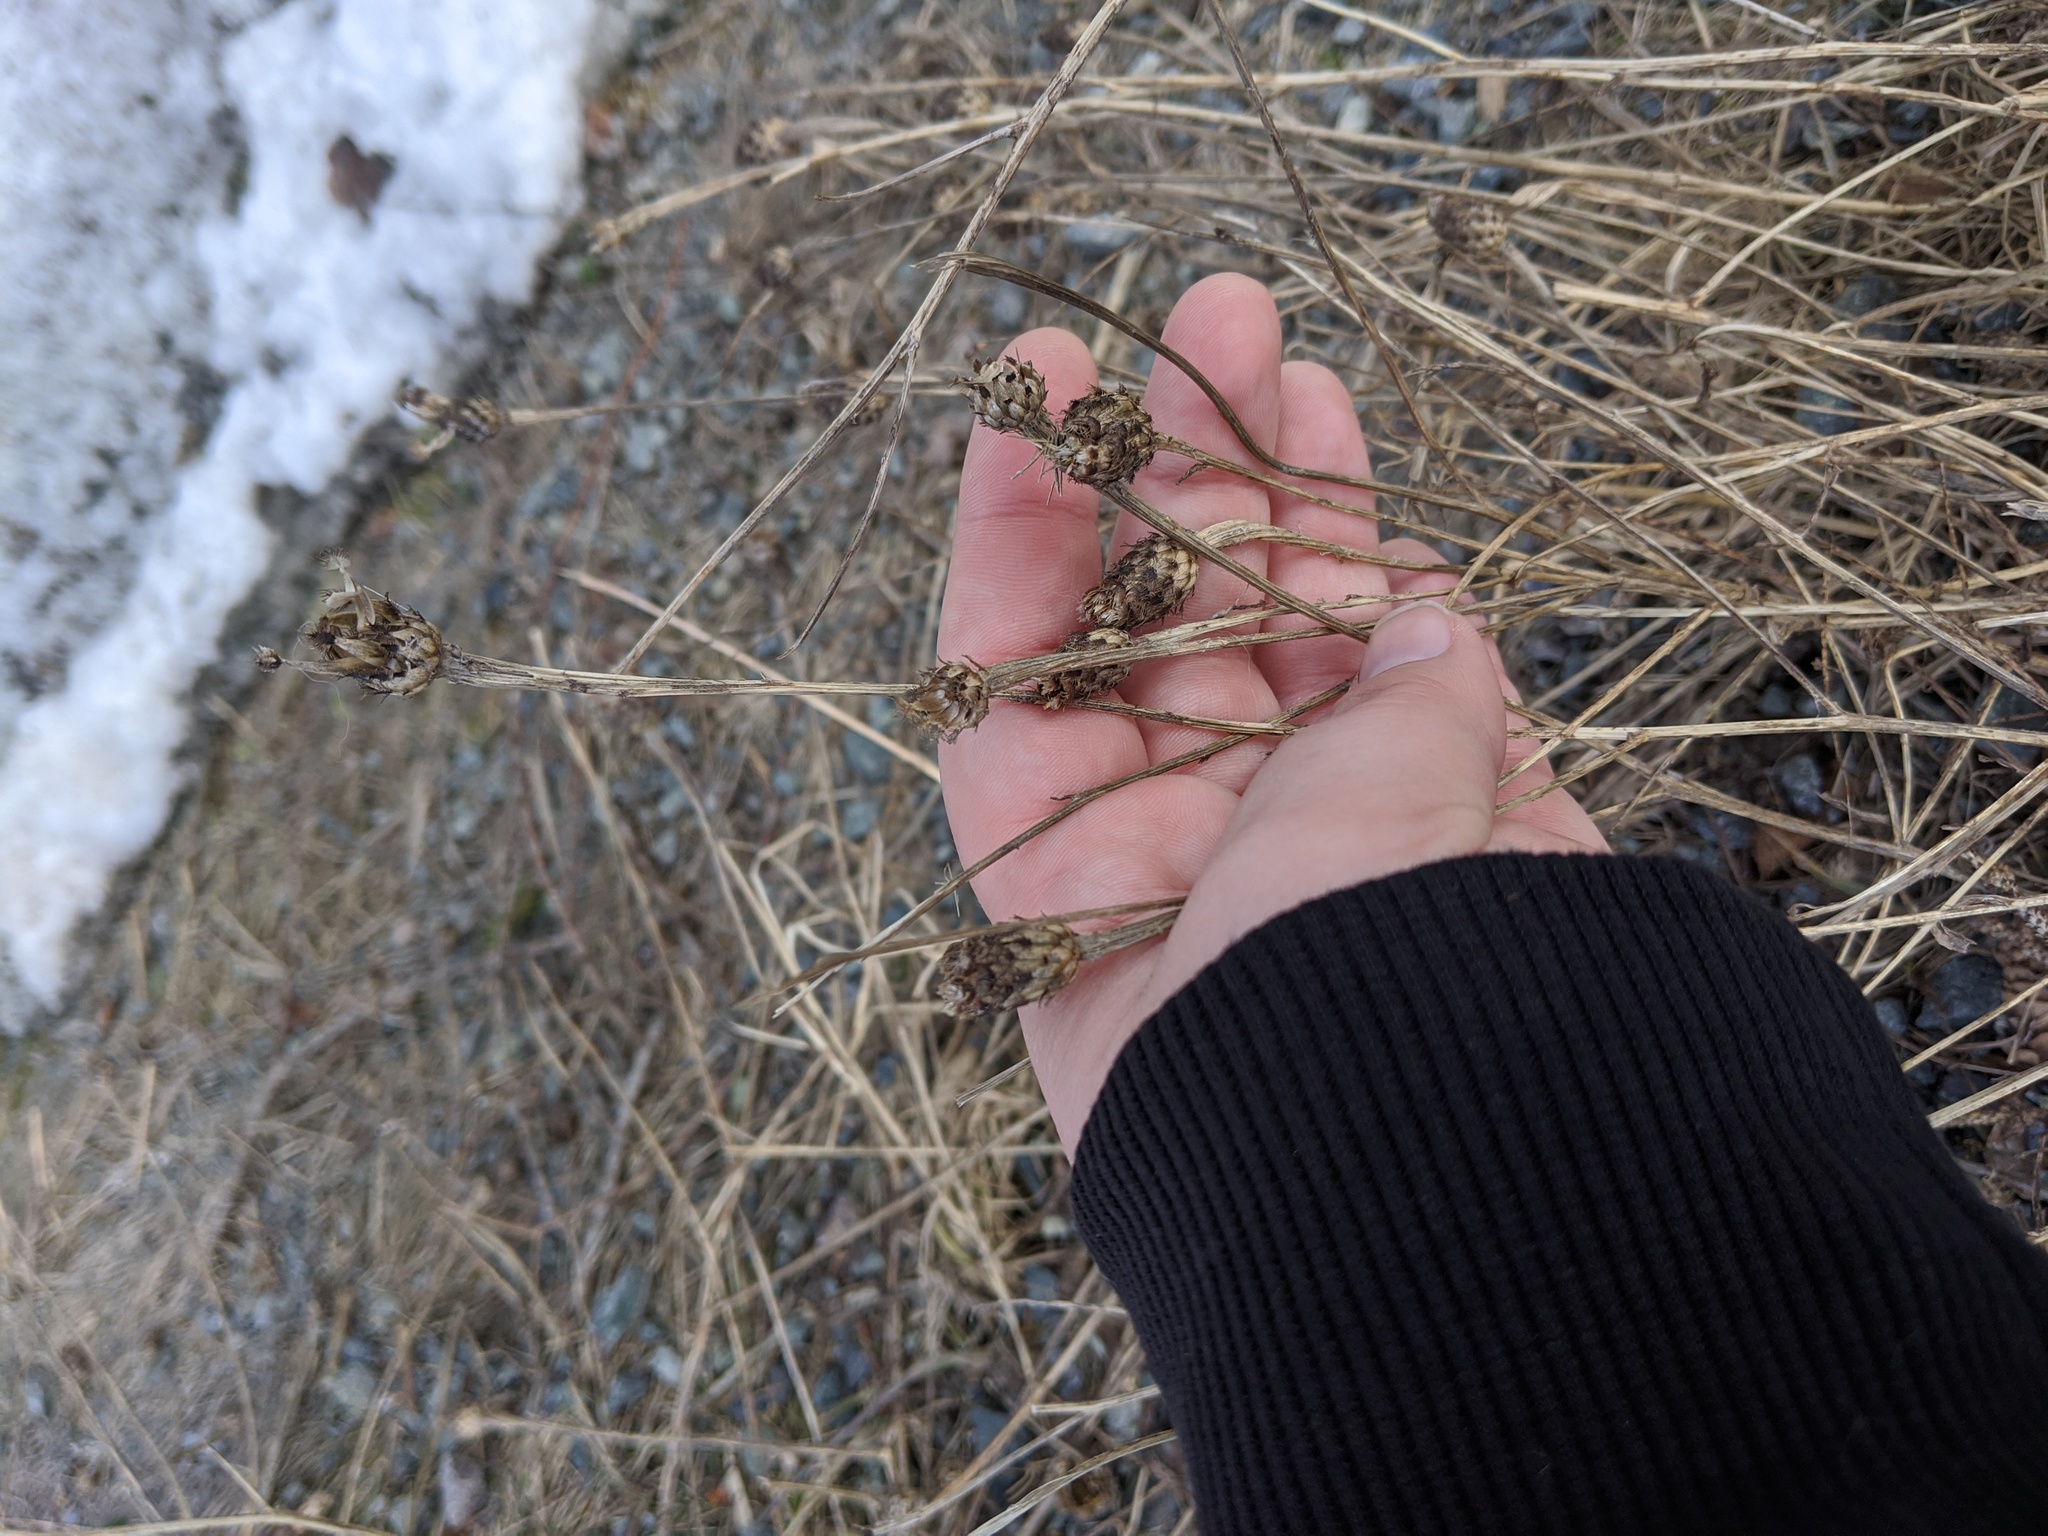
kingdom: Plantae
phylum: Tracheophyta
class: Magnoliopsida
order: Asterales
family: Asteraceae
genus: Centaurea
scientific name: Centaurea nigra
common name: Lesser knapweed
